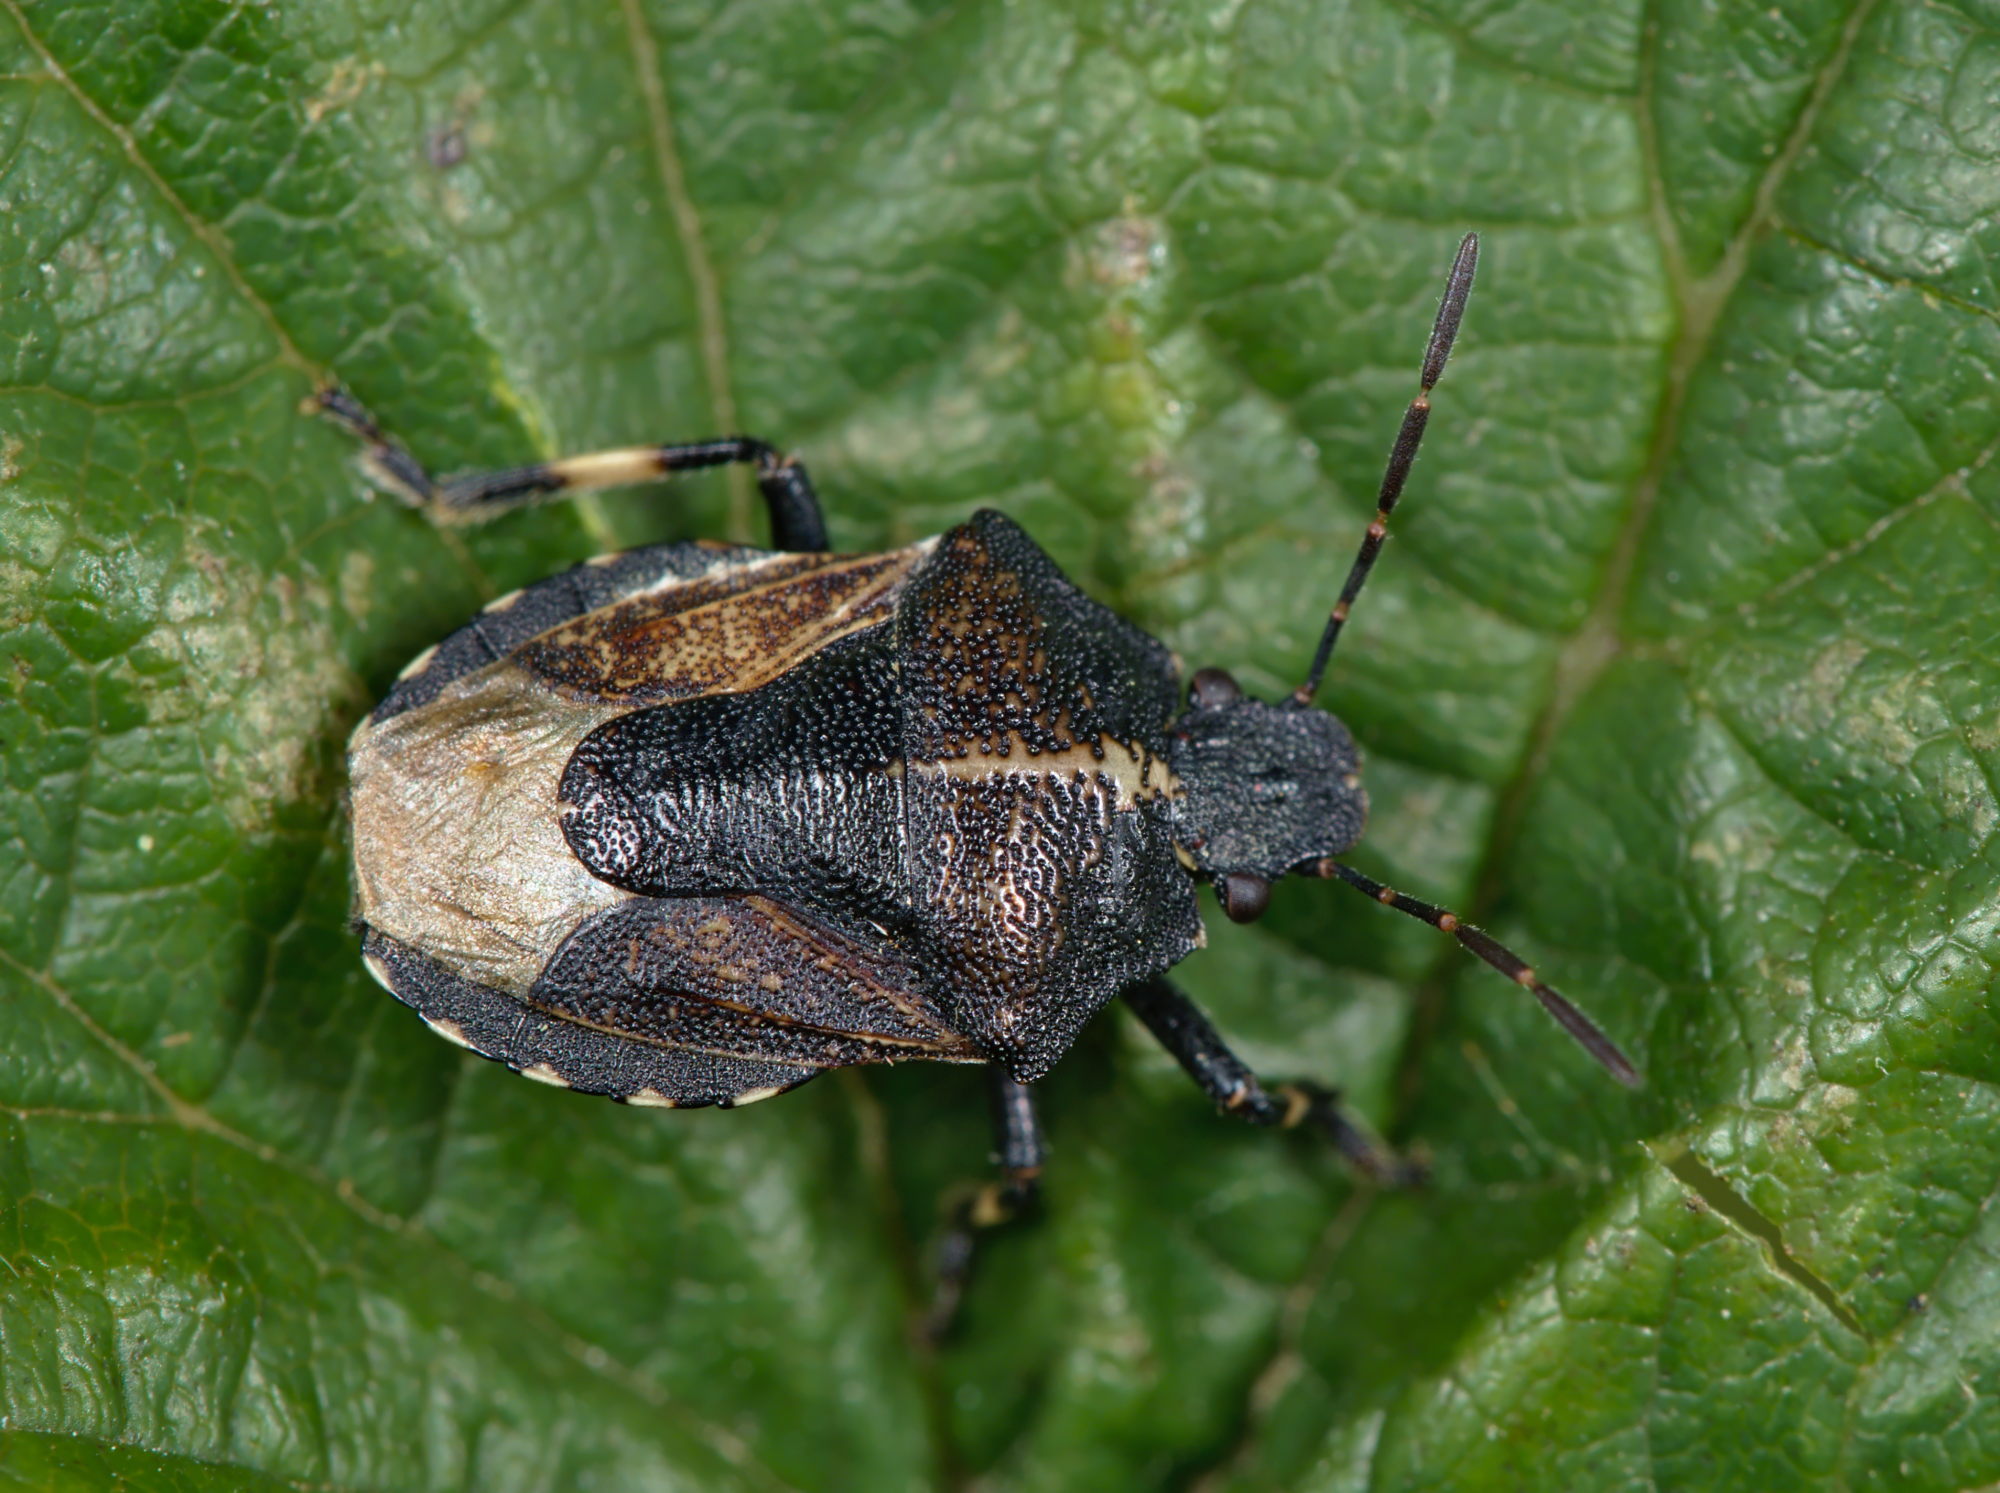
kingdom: Animalia
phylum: Arthropoda
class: Insecta
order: Hemiptera
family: Pentatomidae
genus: Rhacognathus
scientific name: Rhacognathus punctatus
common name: Heather bug
